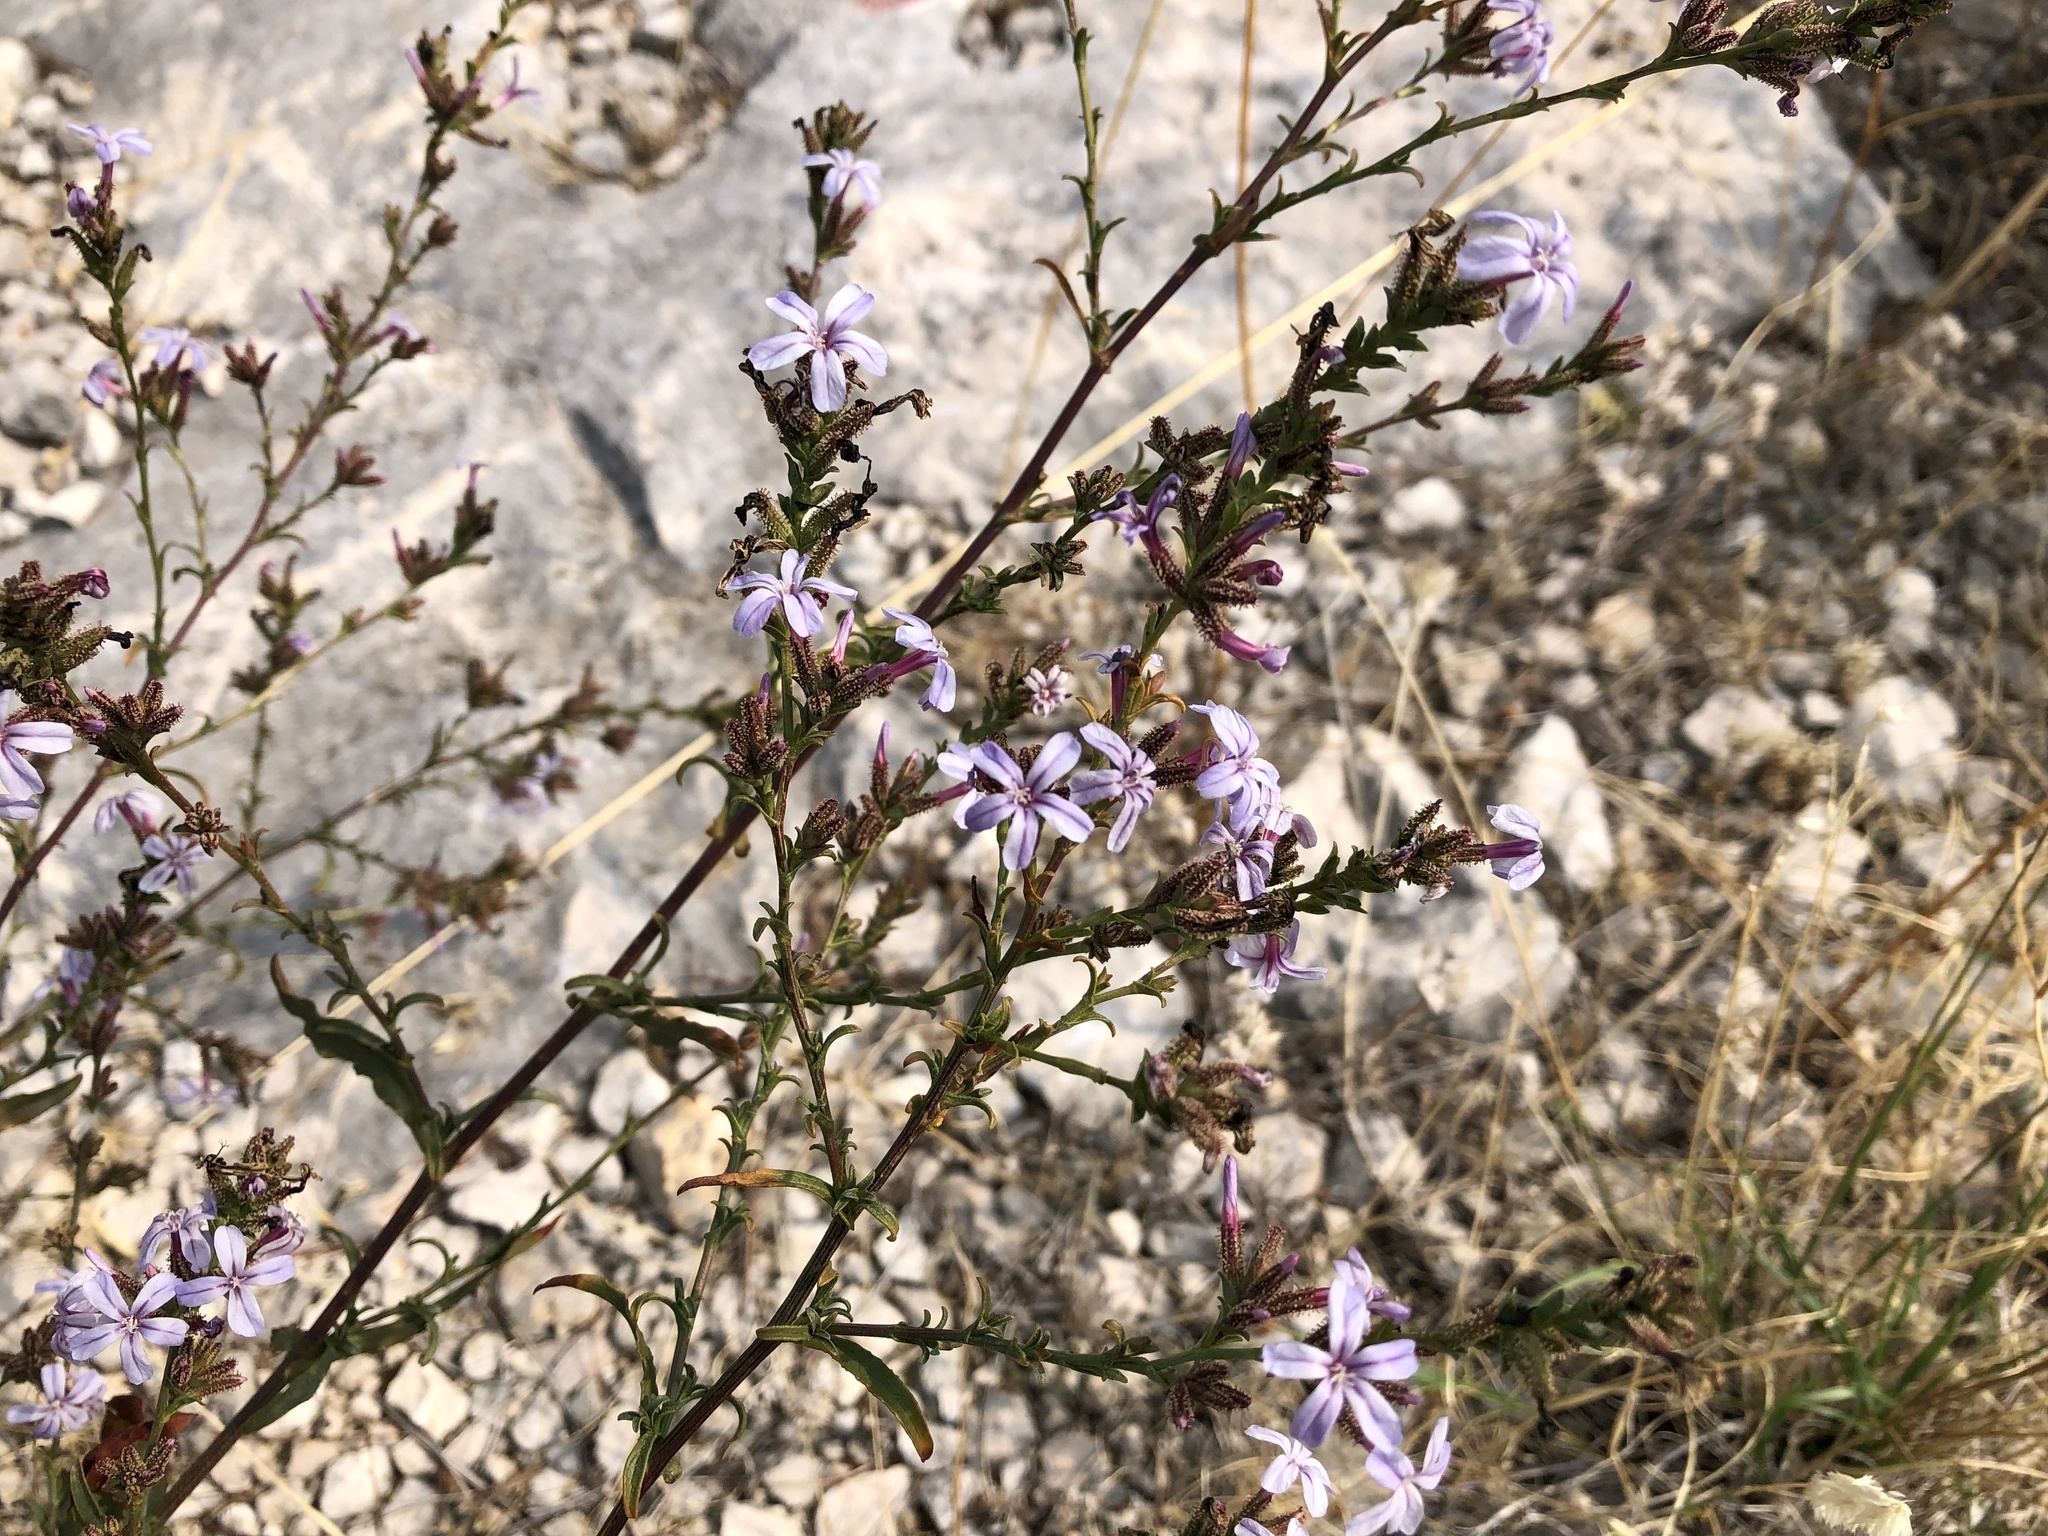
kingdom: Plantae
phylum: Tracheophyta
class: Magnoliopsida
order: Caryophyllales
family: Plumbaginaceae
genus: Plumbago
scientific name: Plumbago europaea
